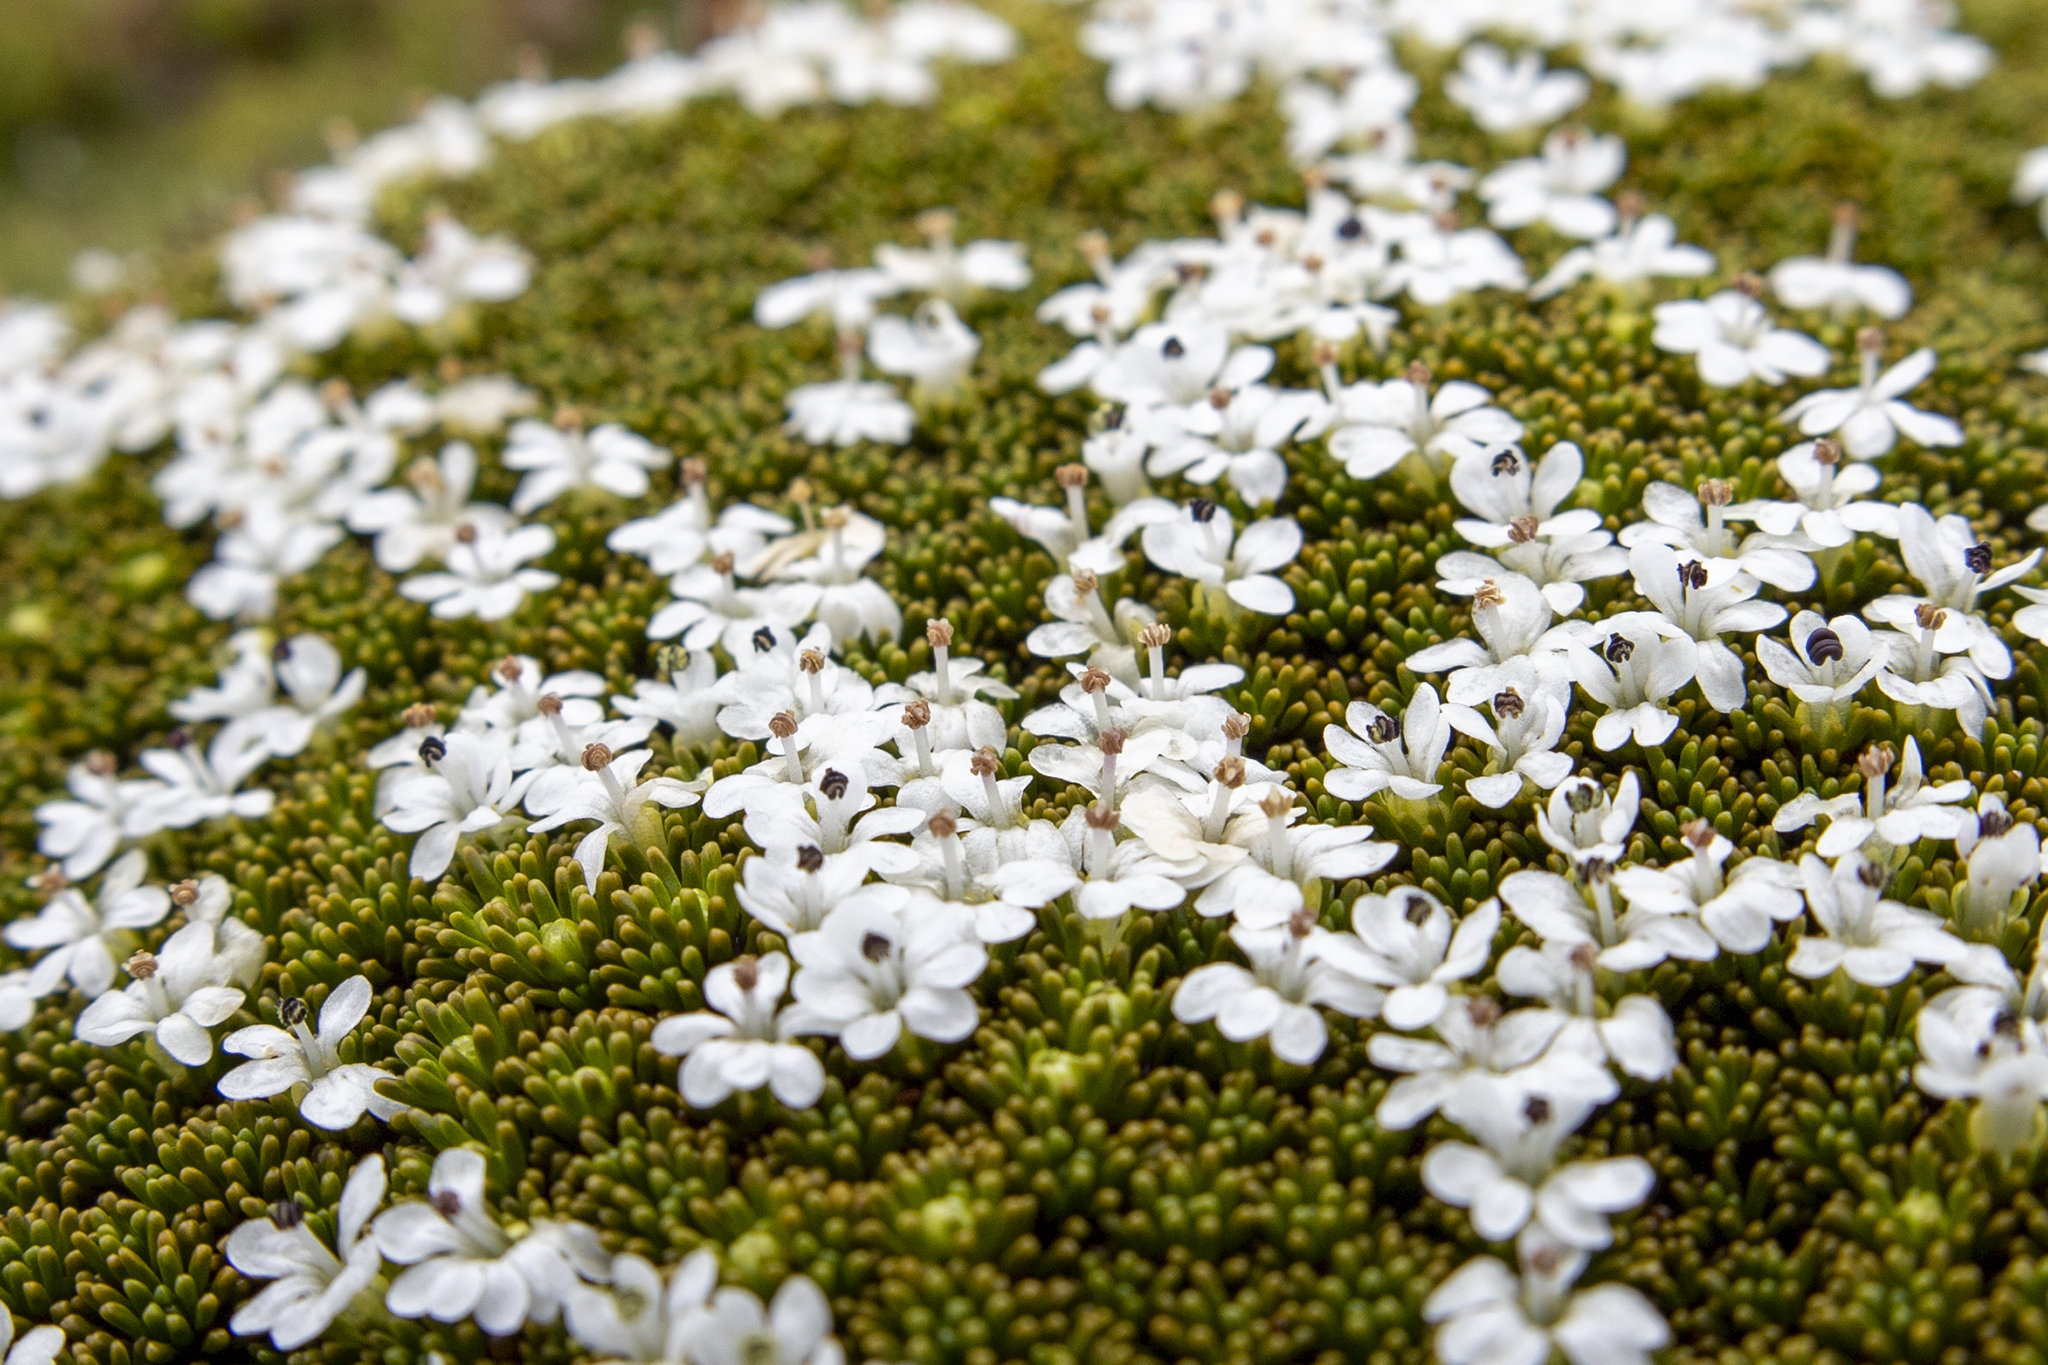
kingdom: Plantae
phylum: Tracheophyta
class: Magnoliopsida
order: Asterales
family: Stylidiaceae
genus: Phyllachne
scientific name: Phyllachne colensoi
